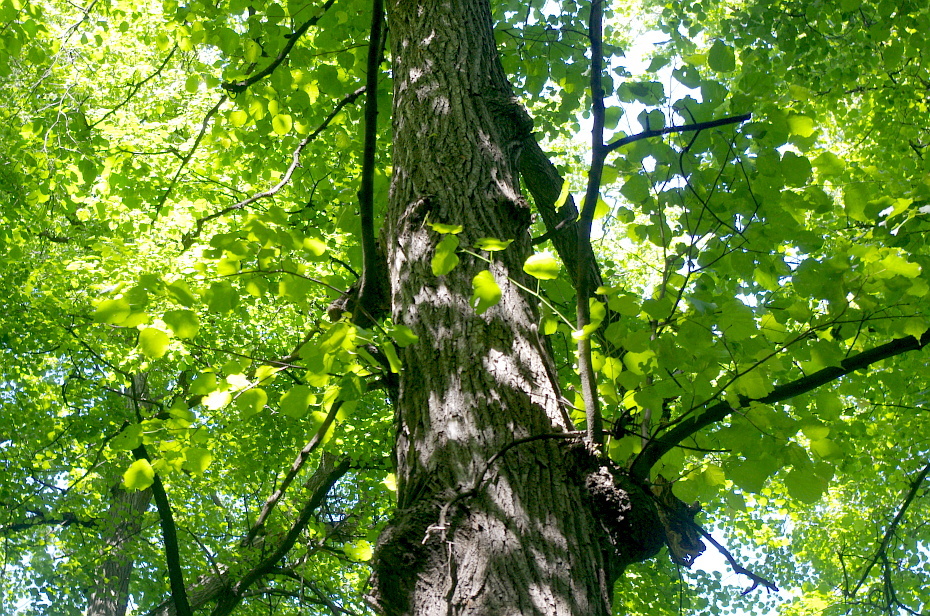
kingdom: Plantae
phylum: Tracheophyta
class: Magnoliopsida
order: Malvales
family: Malvaceae
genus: Tilia
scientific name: Tilia cordata
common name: Small-leaved lime
